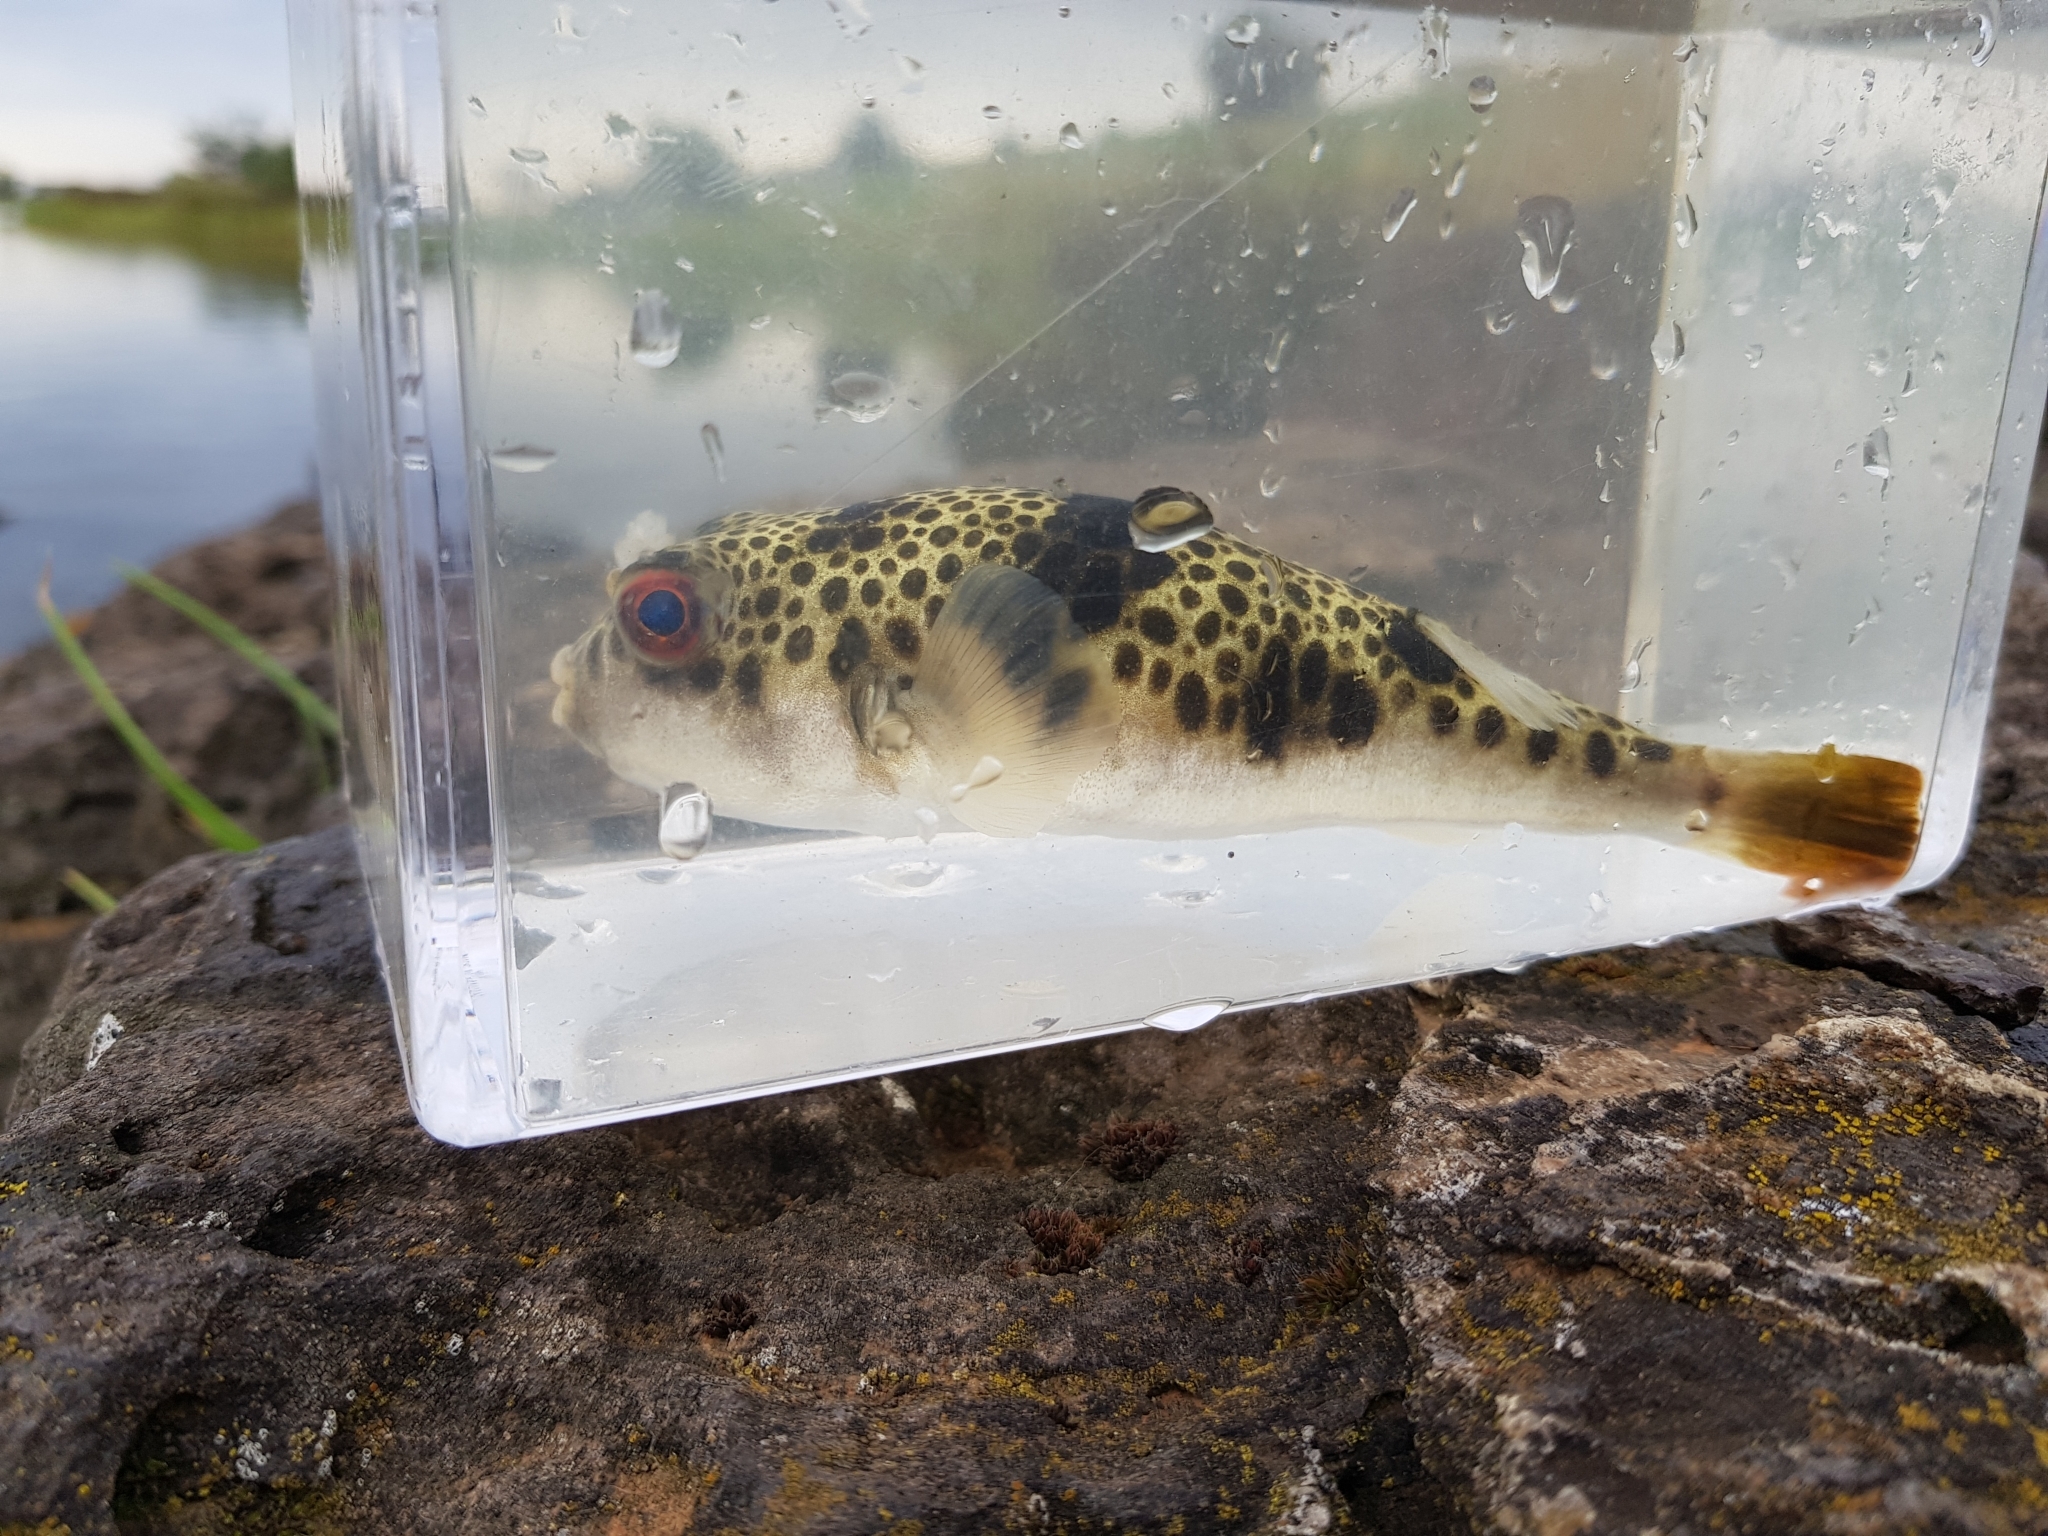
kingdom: Animalia
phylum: Chordata
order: Tetraodontiformes
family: Tetraodontidae
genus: Tetractenos
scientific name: Tetractenos glaber
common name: Smooth toadfish
